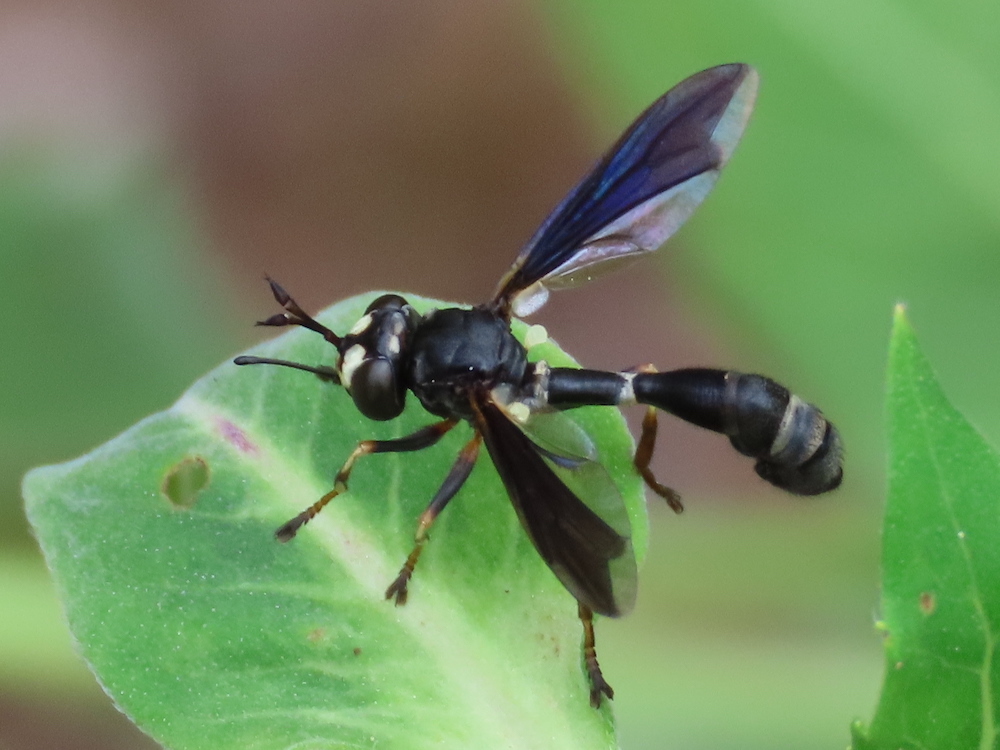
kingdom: Animalia
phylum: Arthropoda
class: Insecta
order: Diptera
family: Conopidae
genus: Physocephala
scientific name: Physocephala tibialis
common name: Common eastern physocephala
